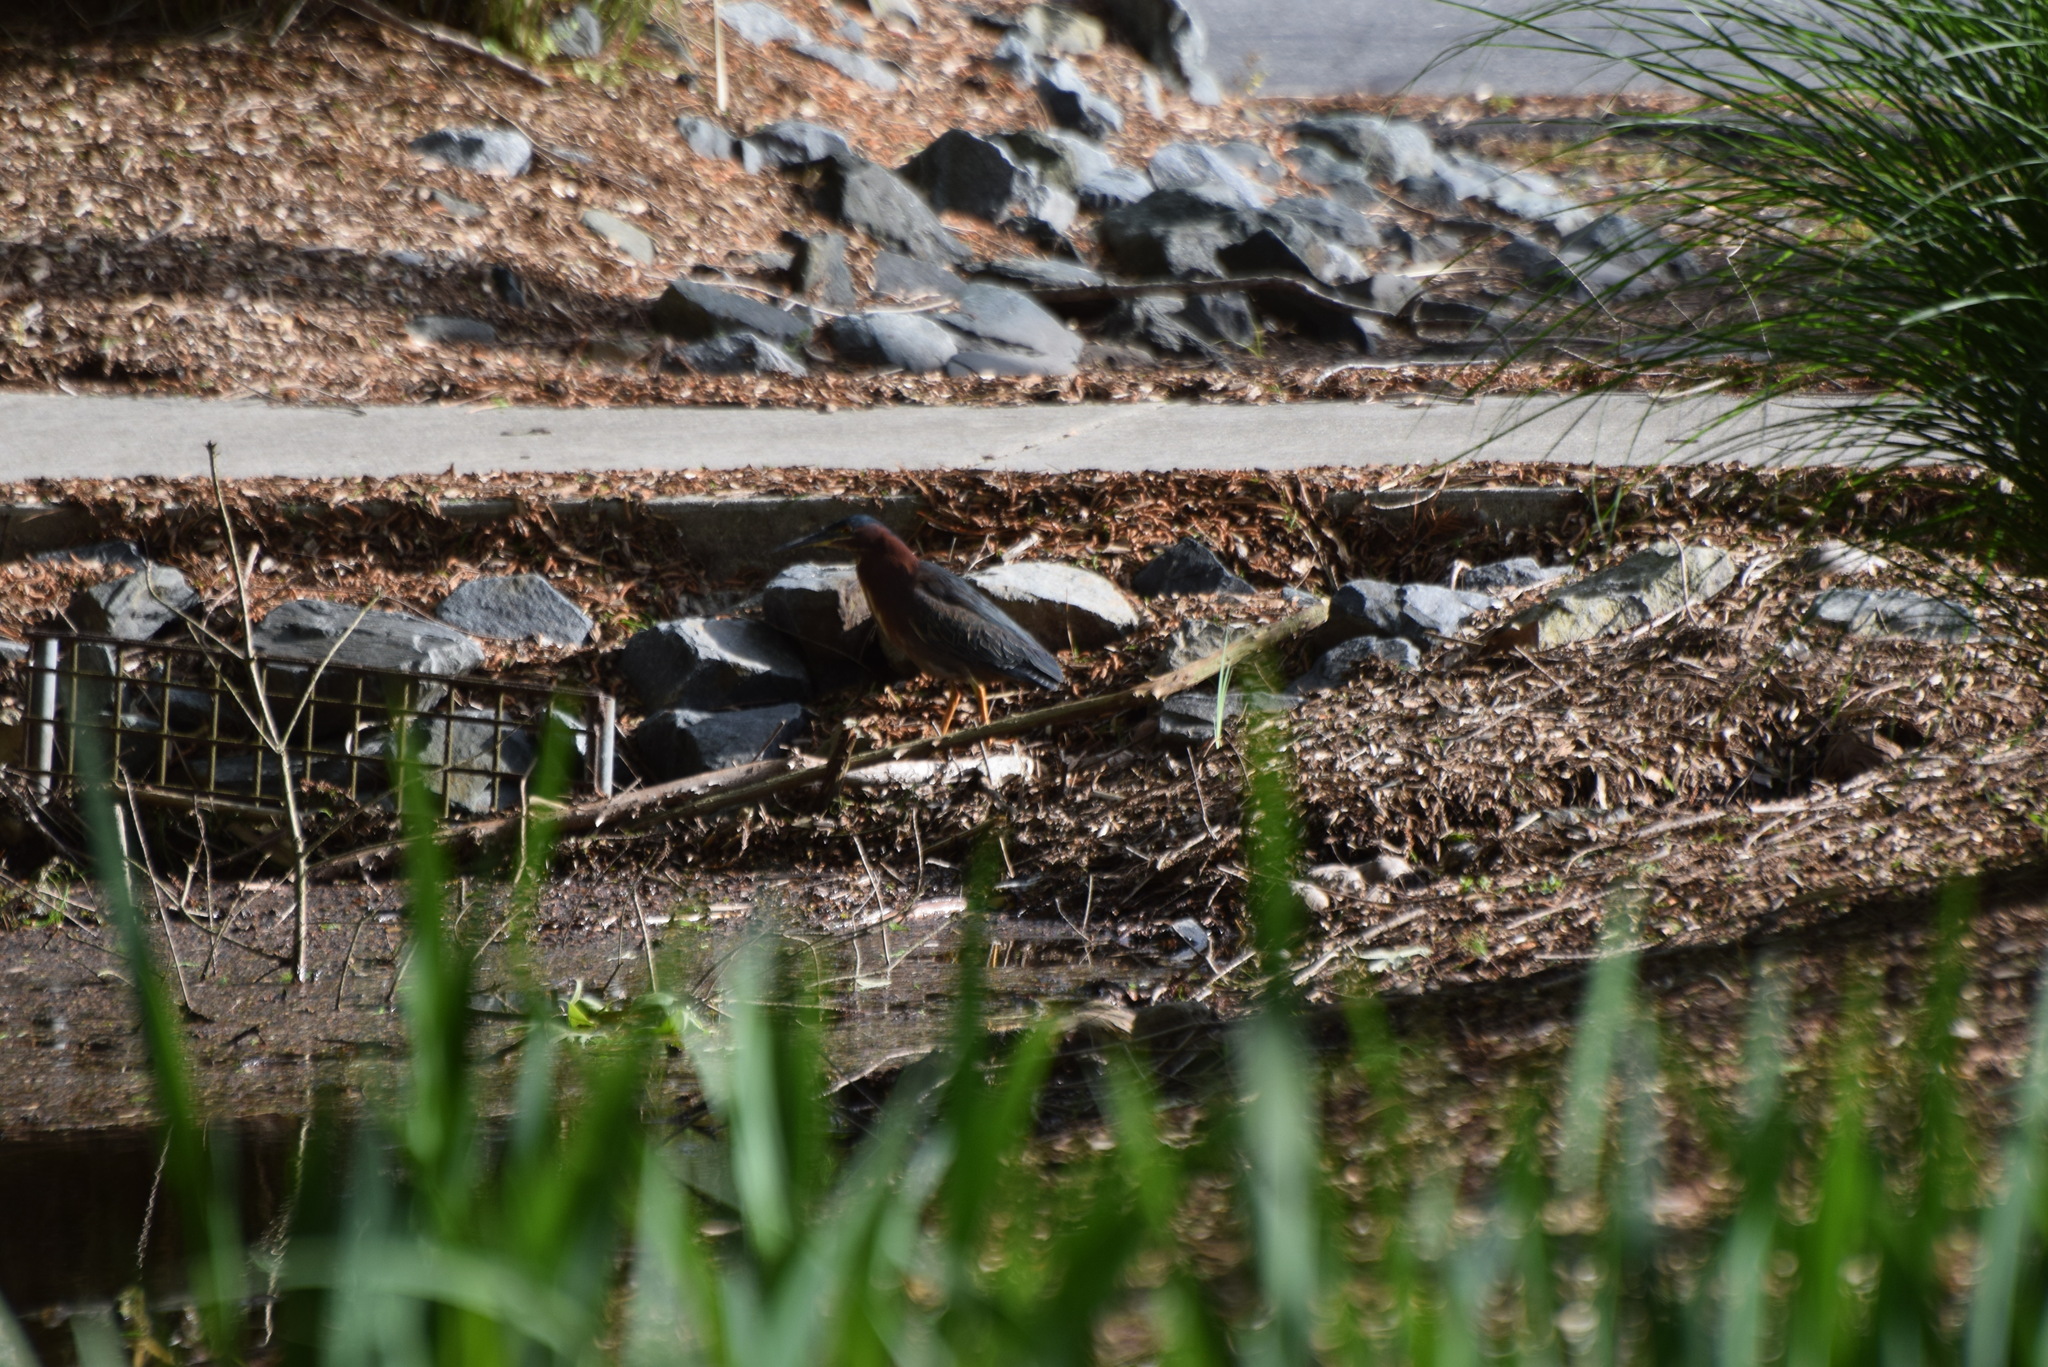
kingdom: Animalia
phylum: Chordata
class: Aves
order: Pelecaniformes
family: Ardeidae
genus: Butorides
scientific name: Butorides virescens
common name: Green heron
